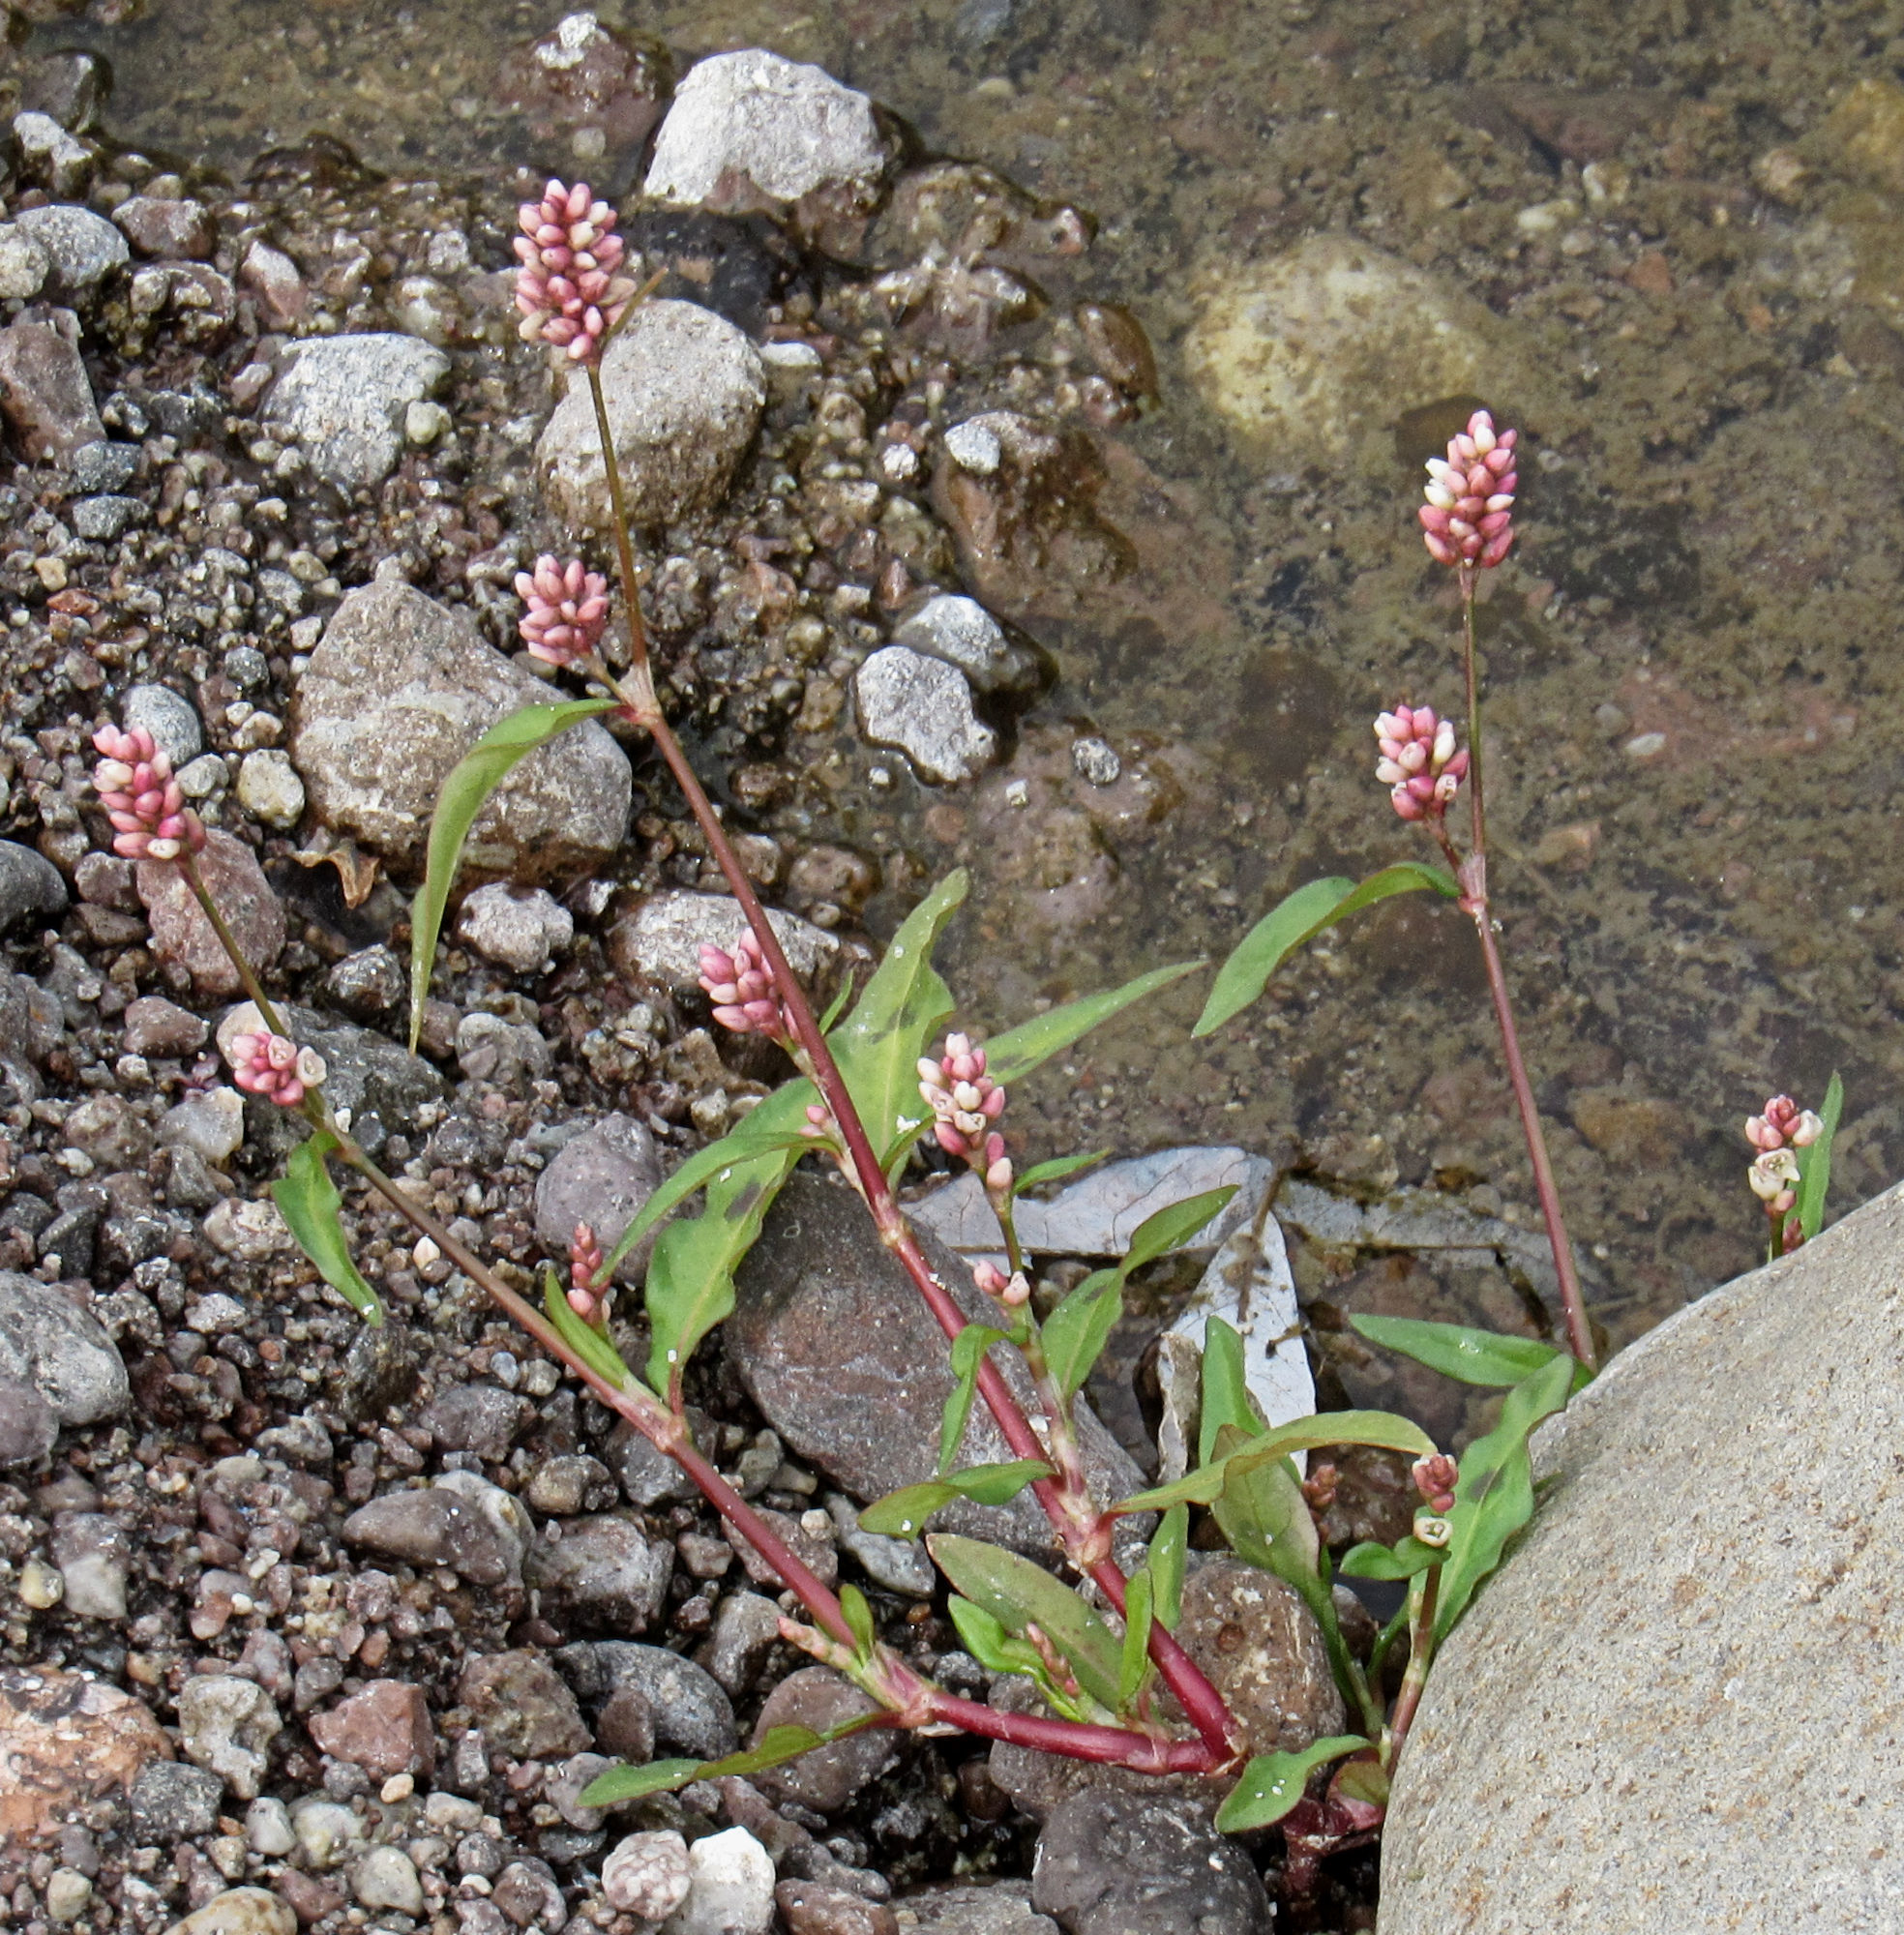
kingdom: Plantae
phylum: Tracheophyta
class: Magnoliopsida
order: Caryophyllales
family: Polygonaceae
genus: Persicaria
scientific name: Persicaria maculosa
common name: Redshank
